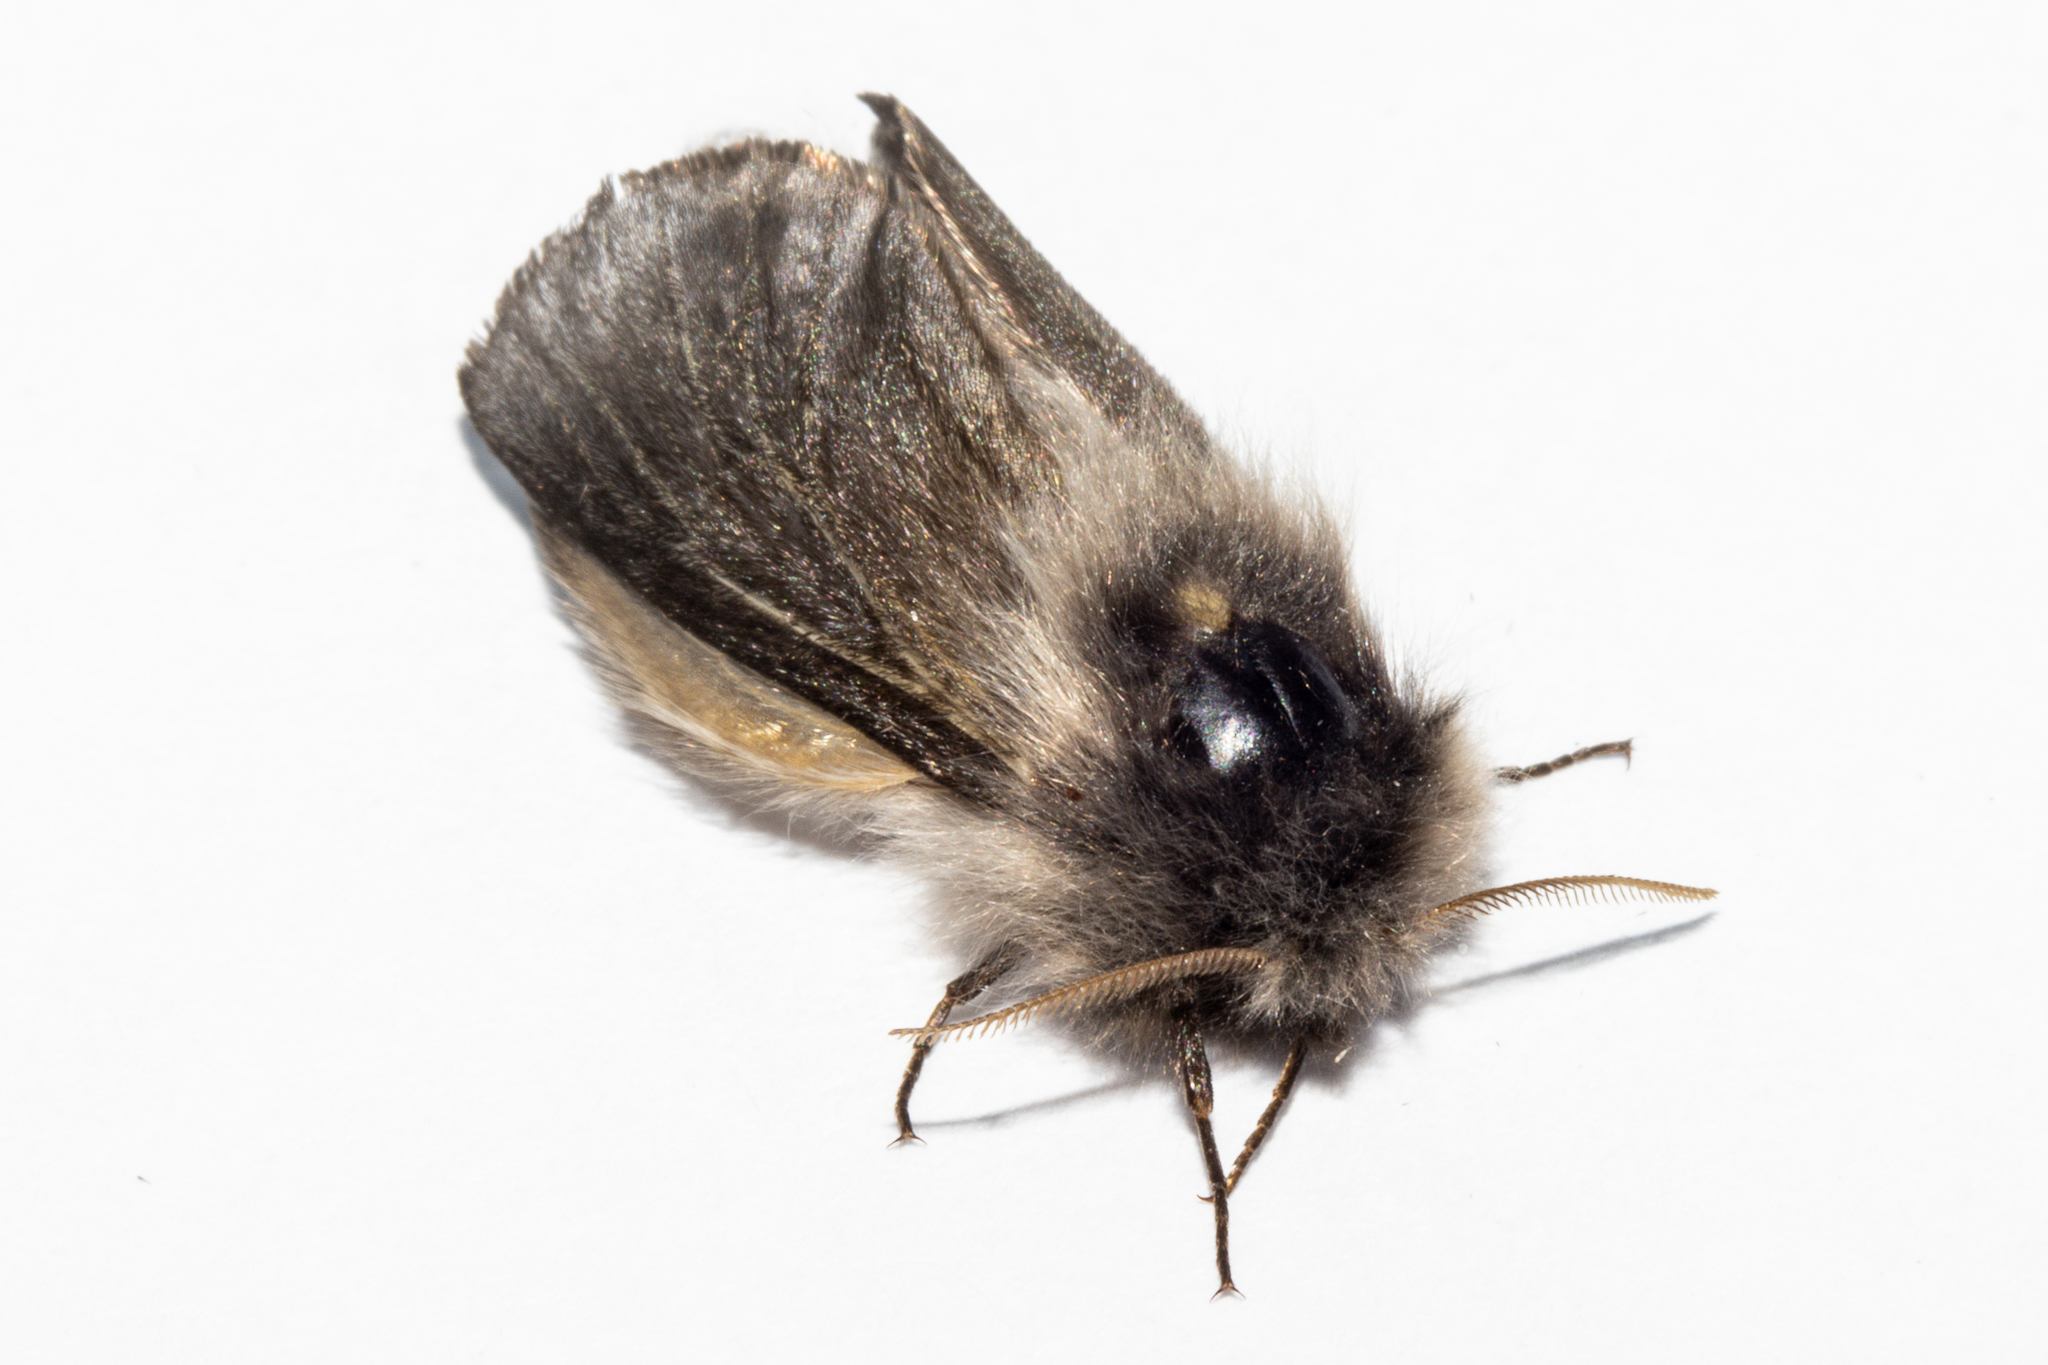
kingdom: Animalia
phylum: Arthropoda
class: Insecta
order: Lepidoptera
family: Psychidae
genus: Orophora
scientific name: Orophora unicolor
